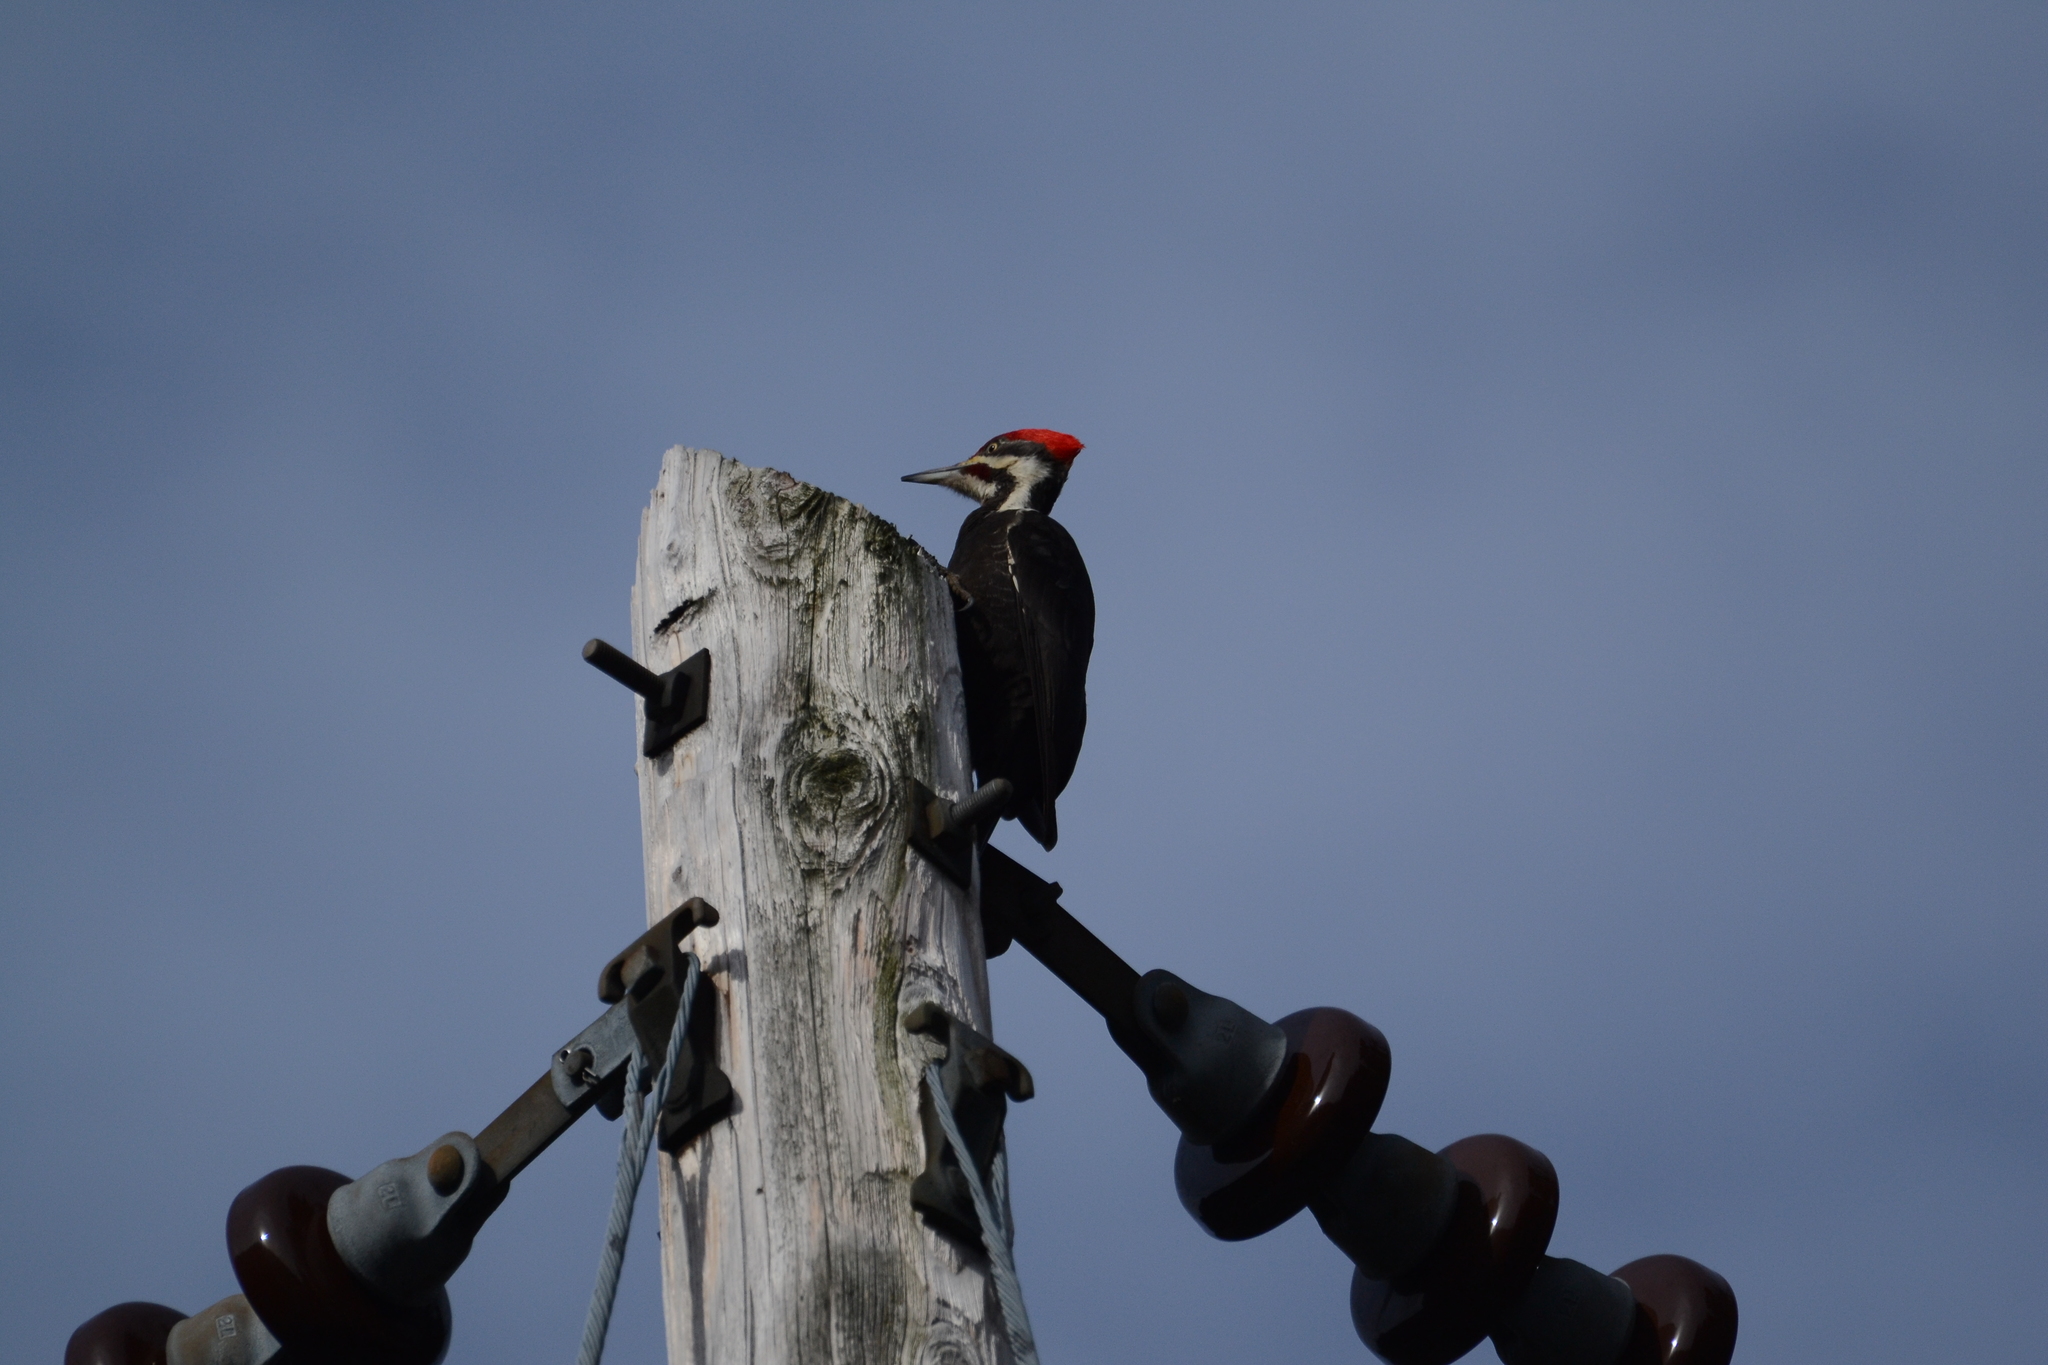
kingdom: Animalia
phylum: Chordata
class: Aves
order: Piciformes
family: Picidae
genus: Dryocopus
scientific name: Dryocopus pileatus
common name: Pileated woodpecker
